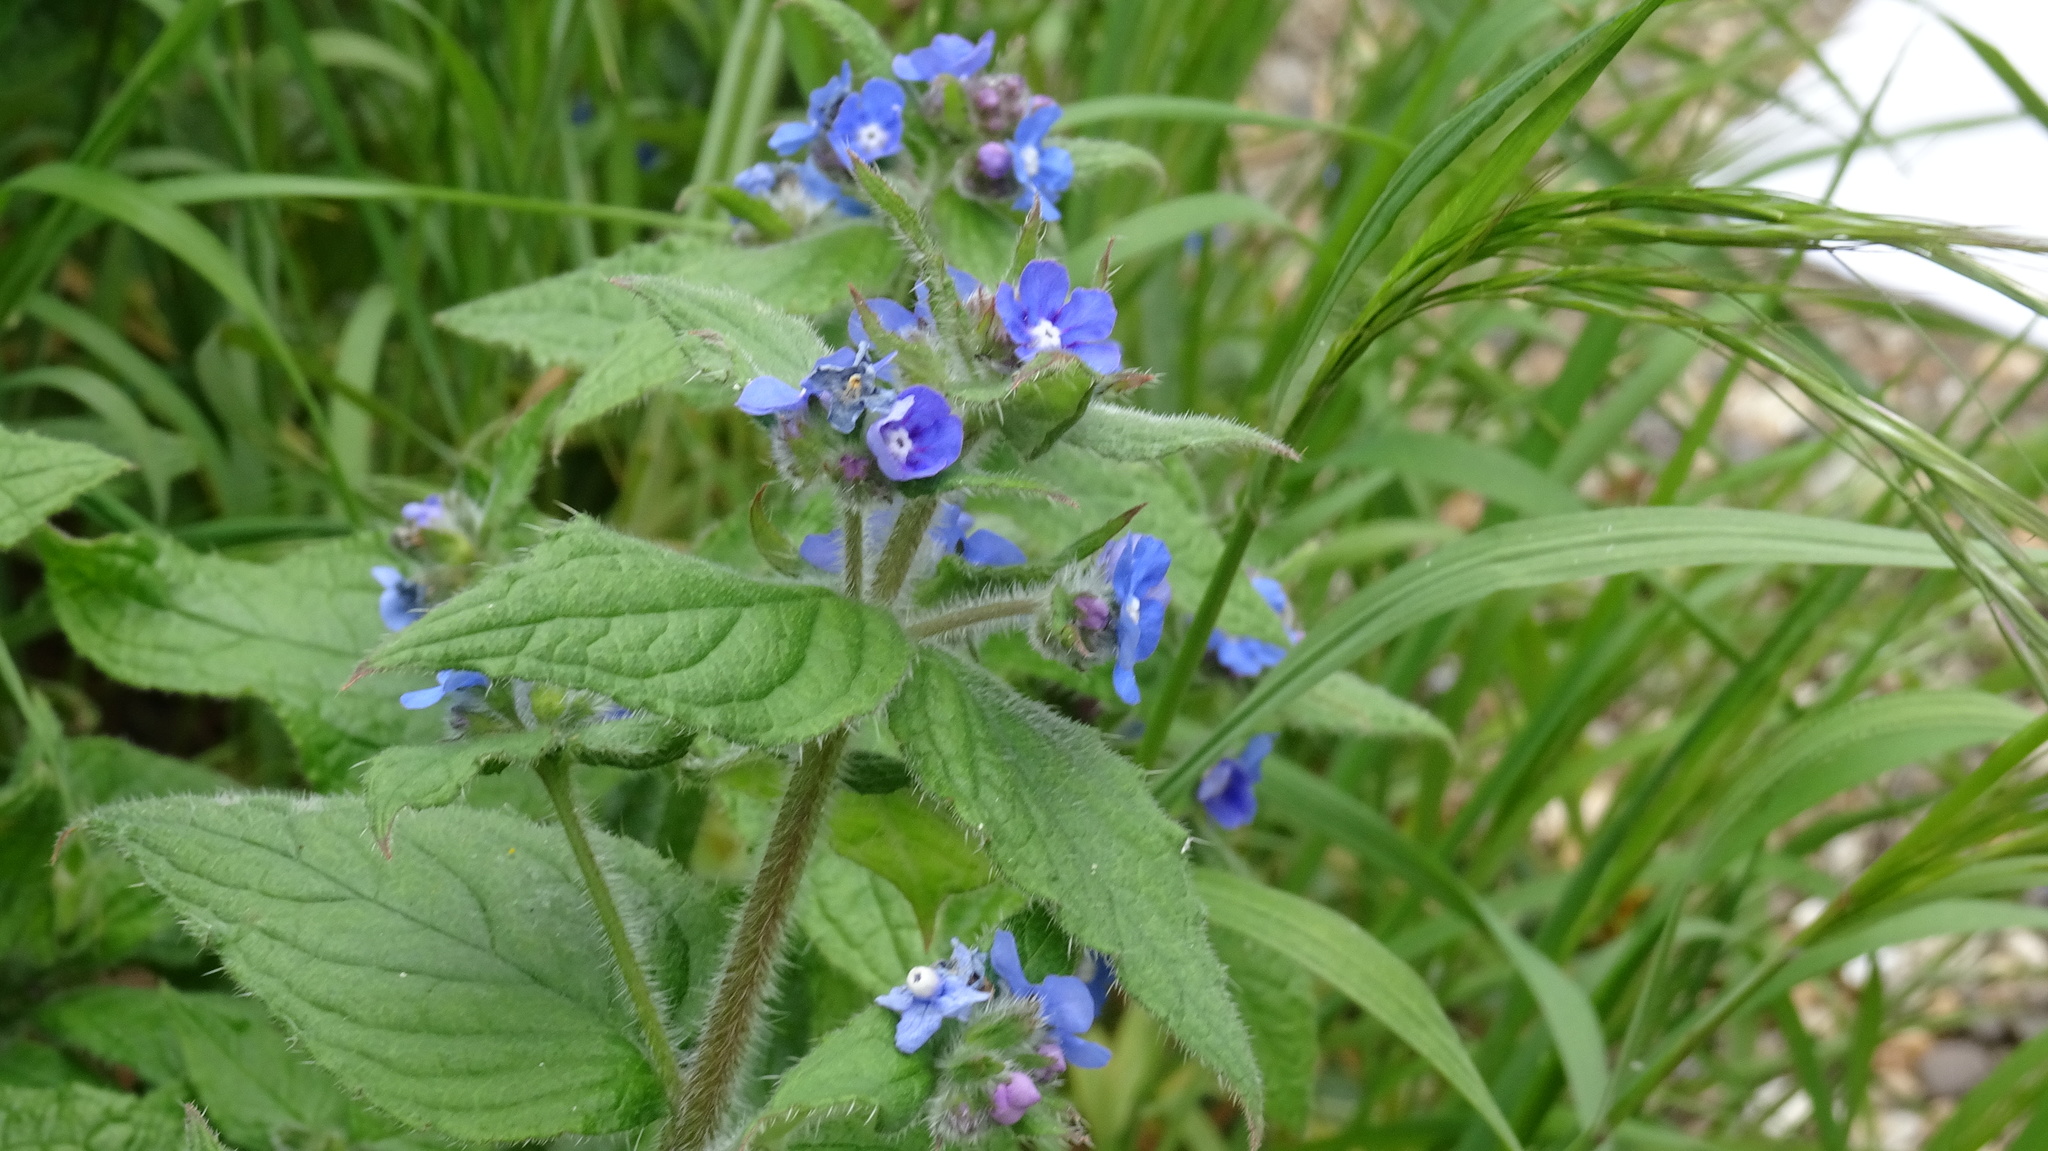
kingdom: Plantae
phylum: Tracheophyta
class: Magnoliopsida
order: Boraginales
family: Boraginaceae
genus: Pentaglottis
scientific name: Pentaglottis sempervirens
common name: Green alkanet
